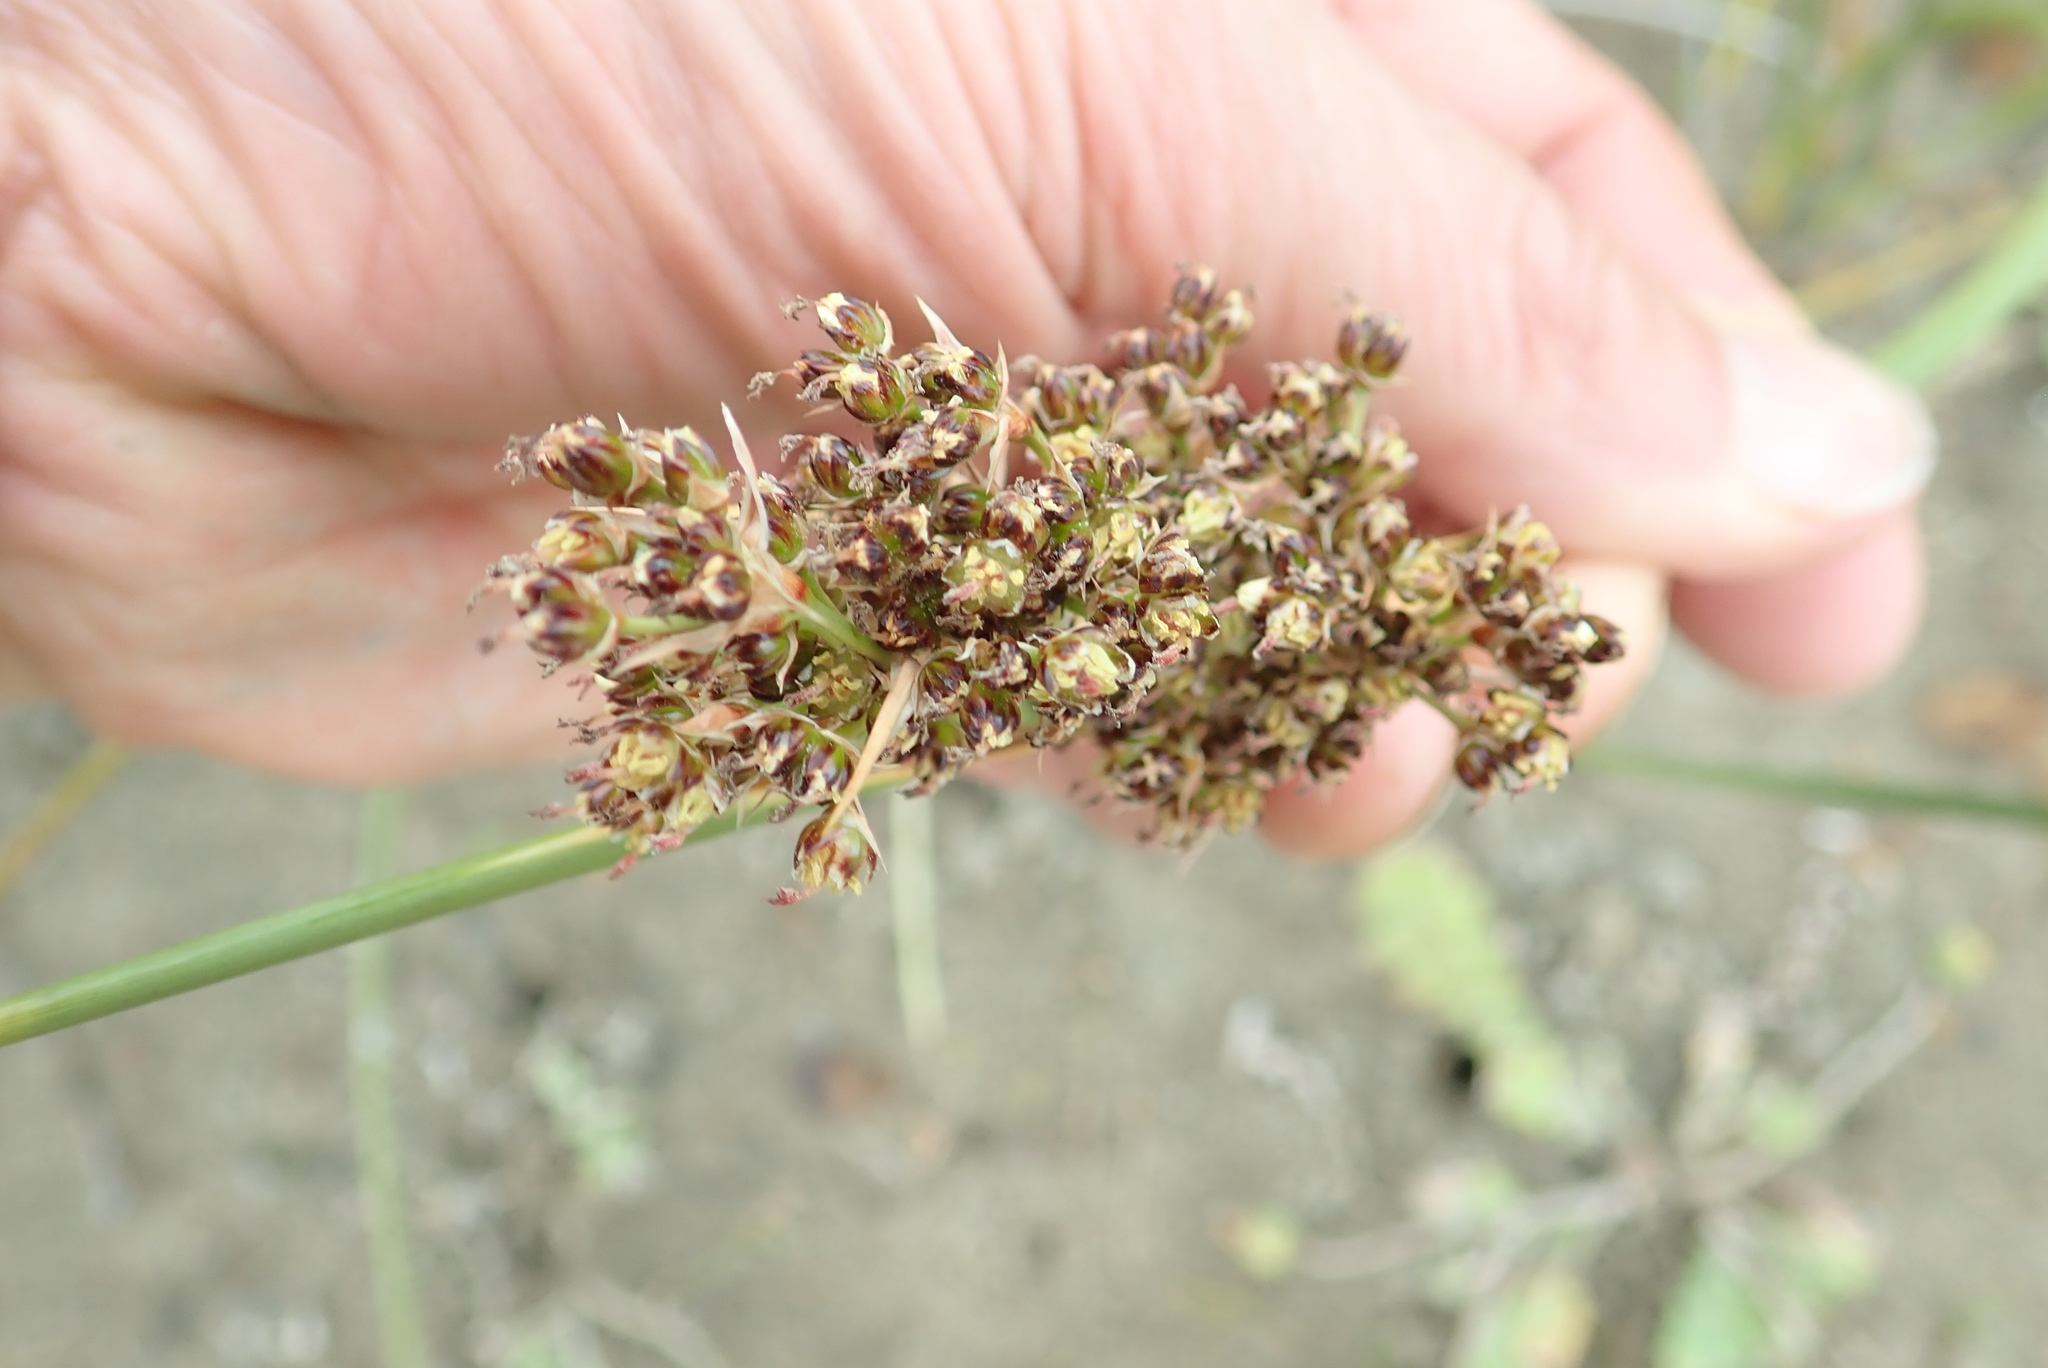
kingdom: Plantae
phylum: Tracheophyta
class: Liliopsida
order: Poales
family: Juncaceae
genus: Juncus
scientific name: Juncus acutus
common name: Sharp rush
